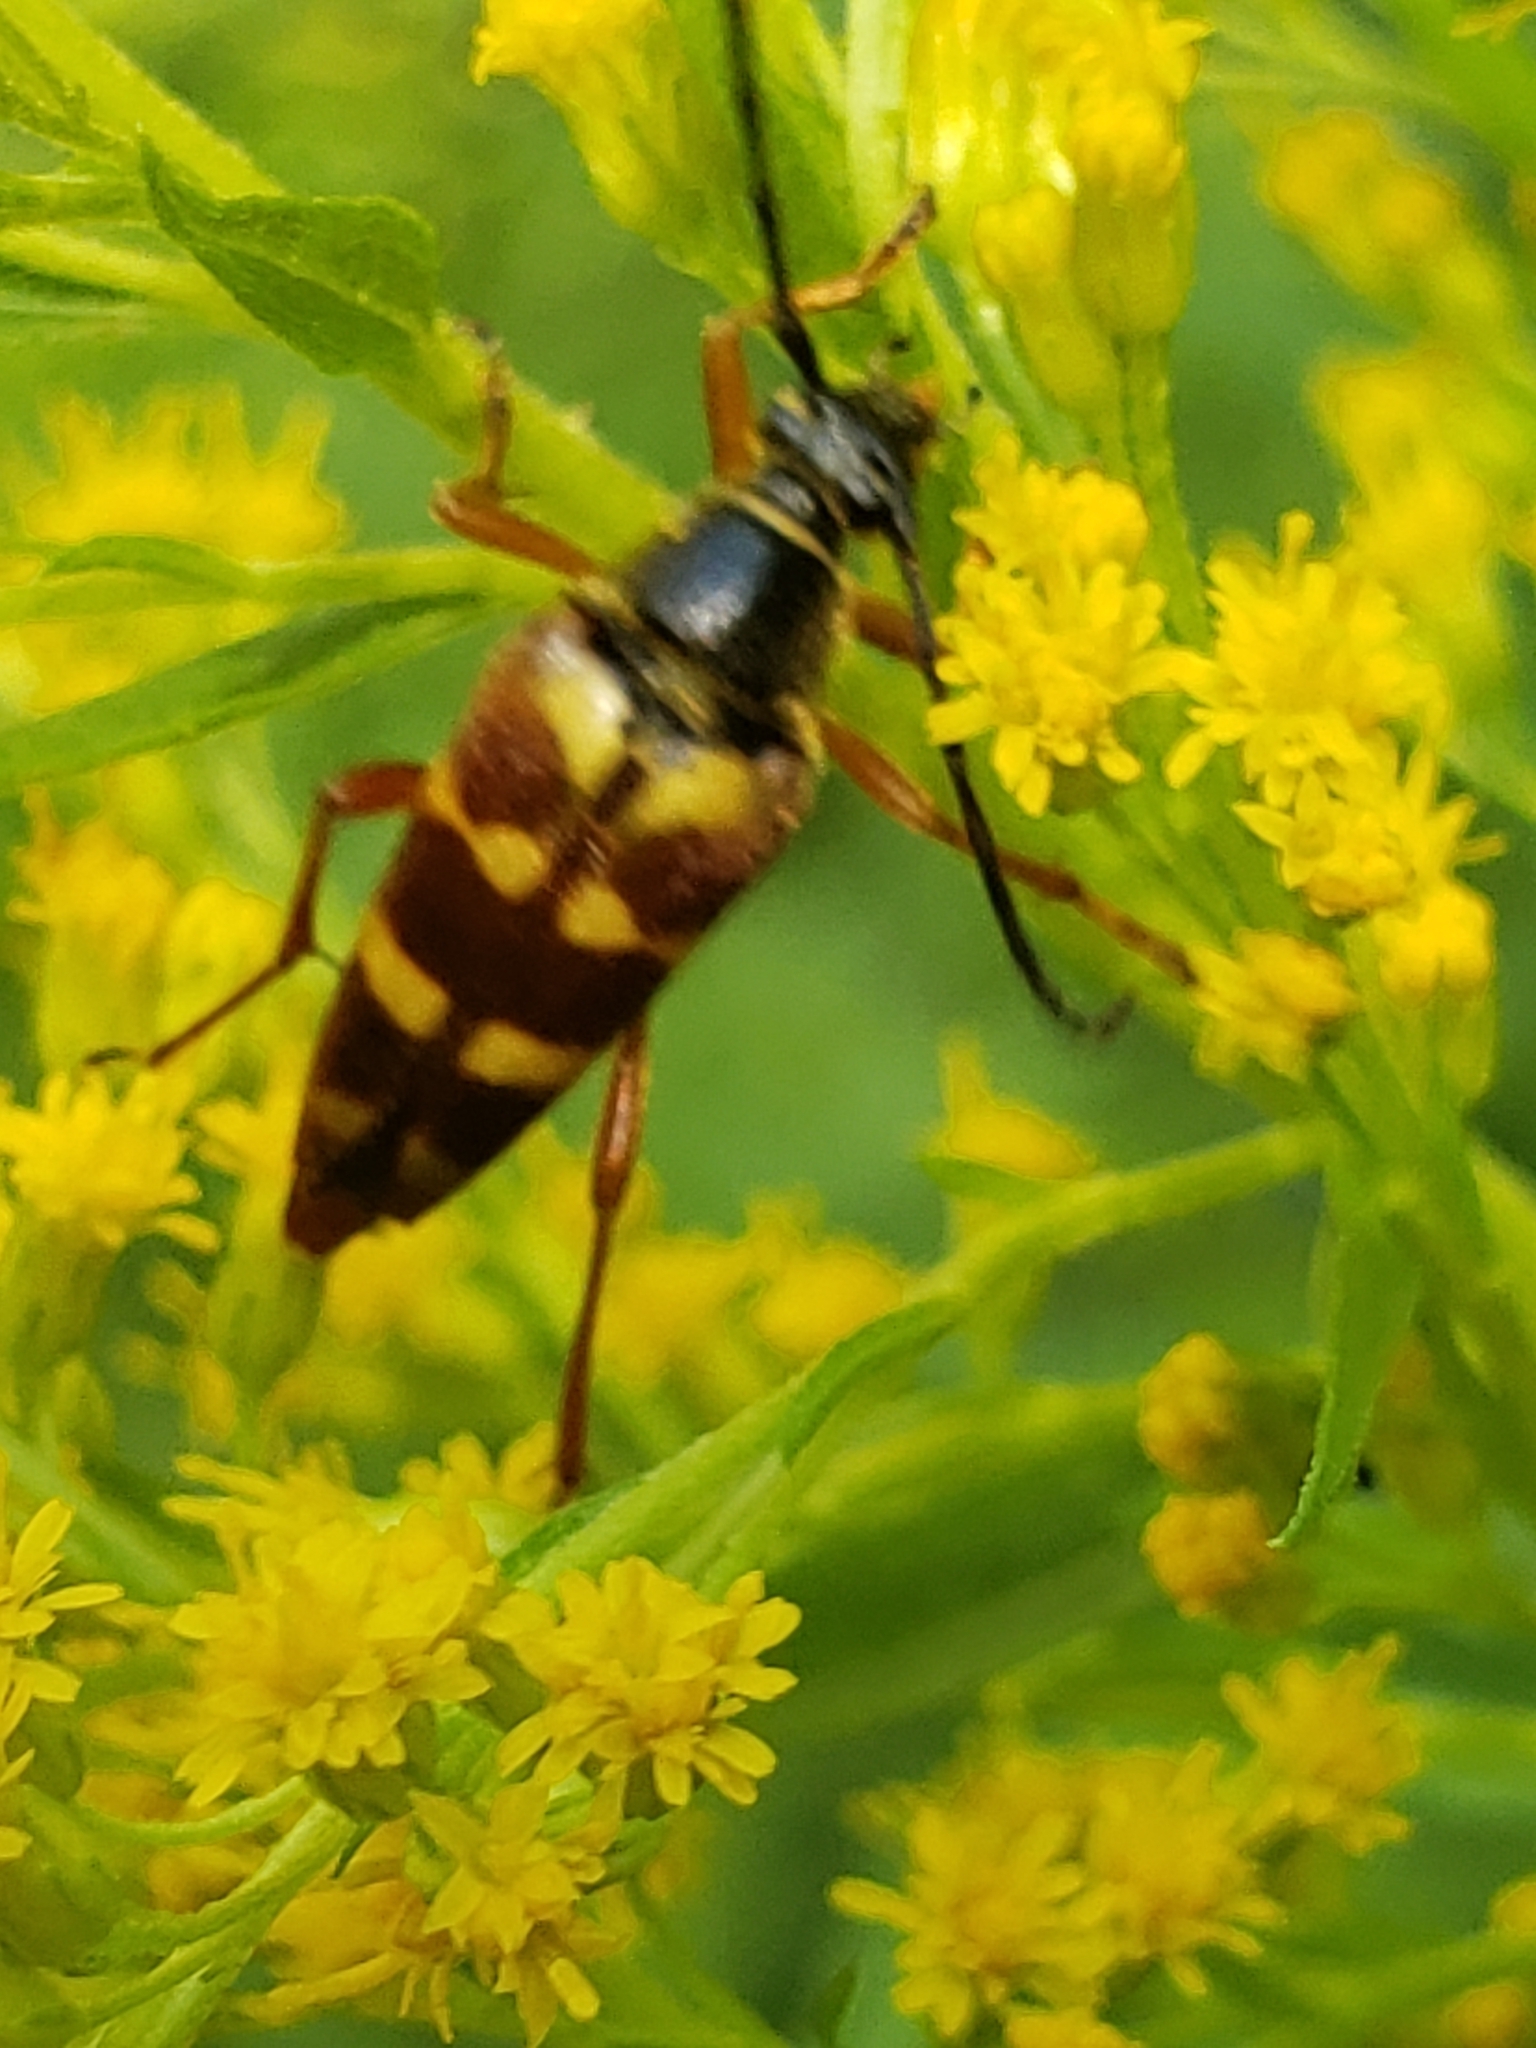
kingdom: Animalia
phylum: Arthropoda
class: Insecta
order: Coleoptera
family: Cerambycidae
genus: Typocerus
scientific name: Typocerus velutinus
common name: Banded longhorn beetle
